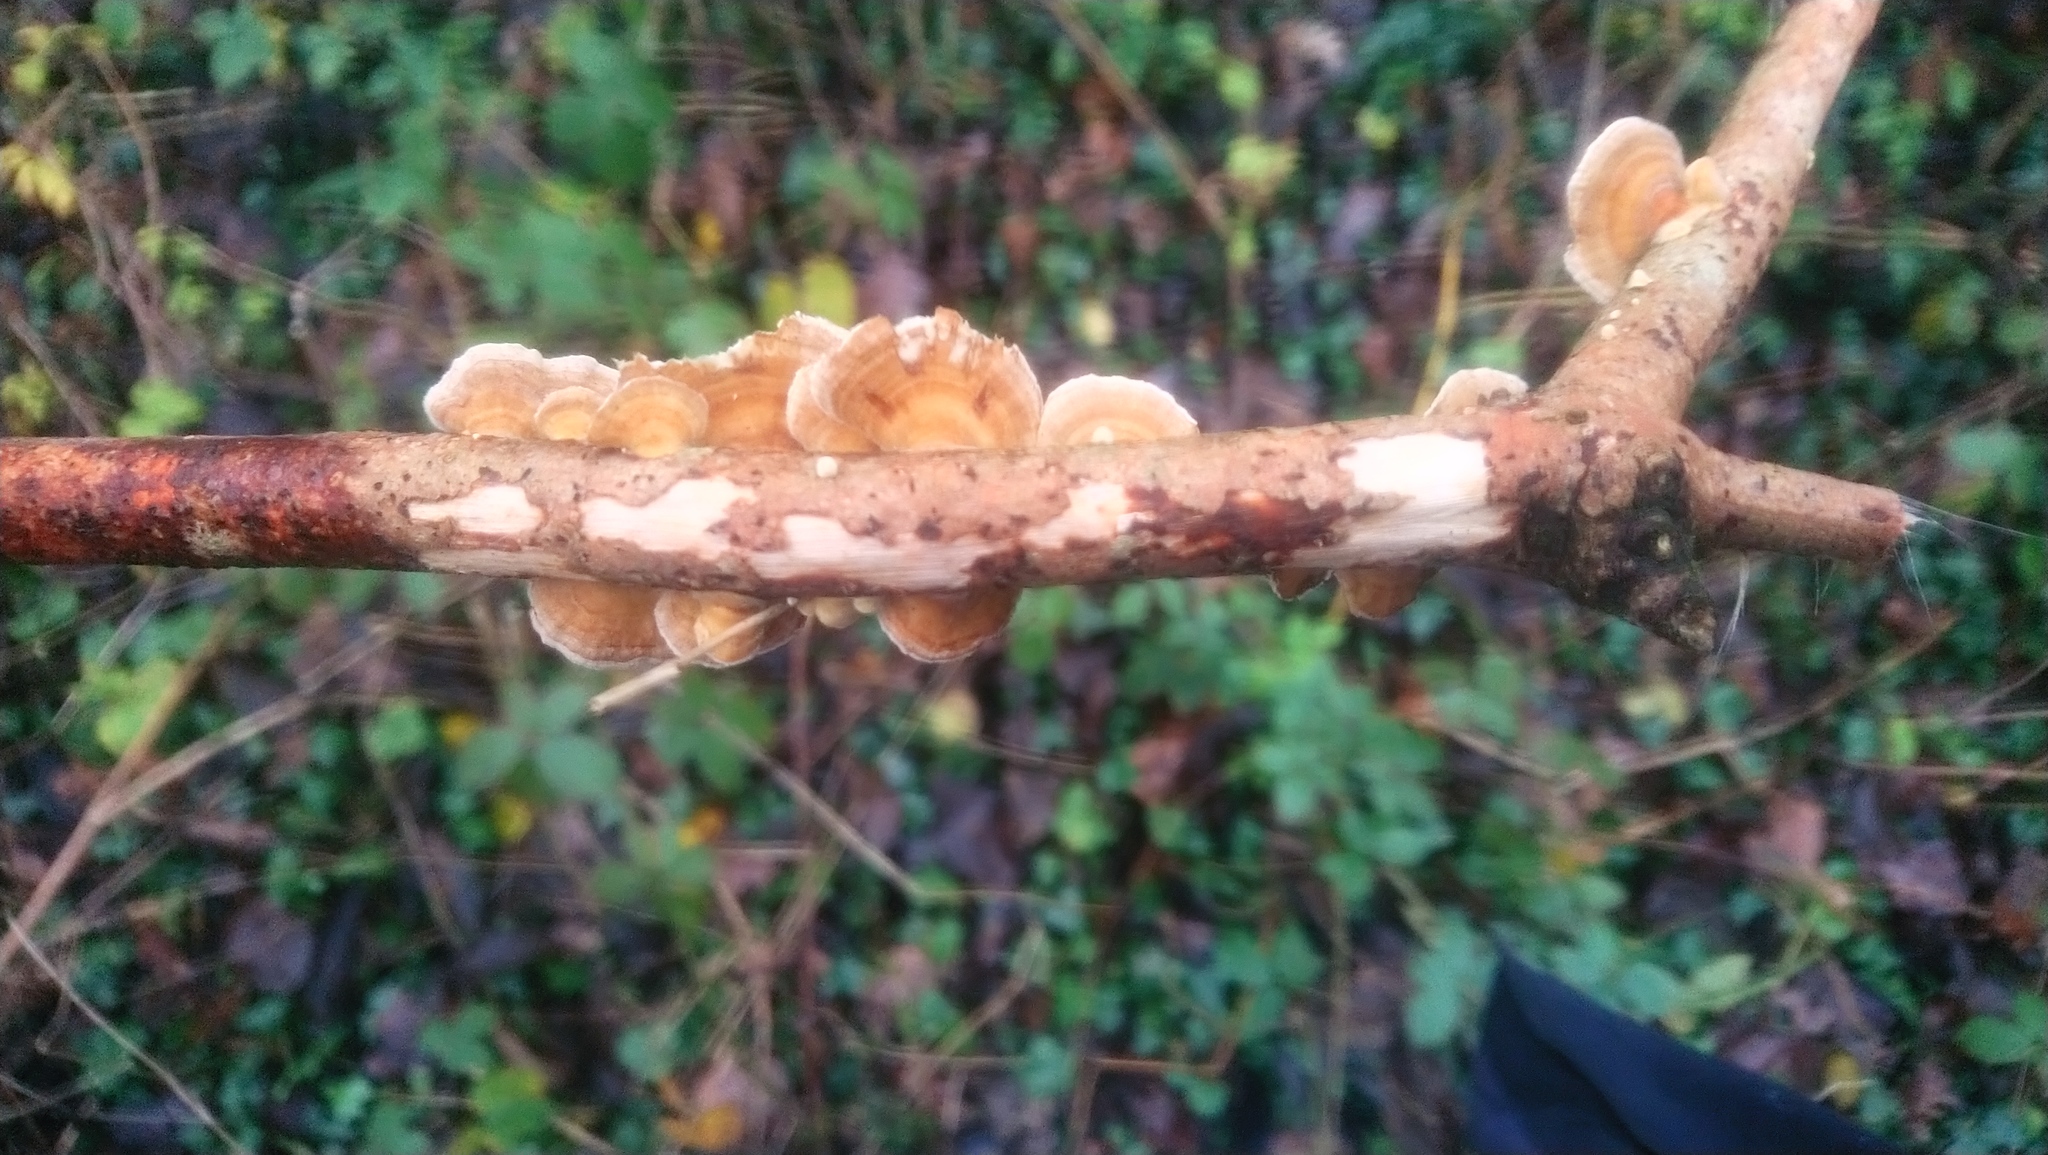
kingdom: Fungi
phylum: Basidiomycota
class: Agaricomycetes
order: Polyporales
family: Polyporaceae
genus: Trametes
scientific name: Trametes versicolor
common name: Turkeytail
